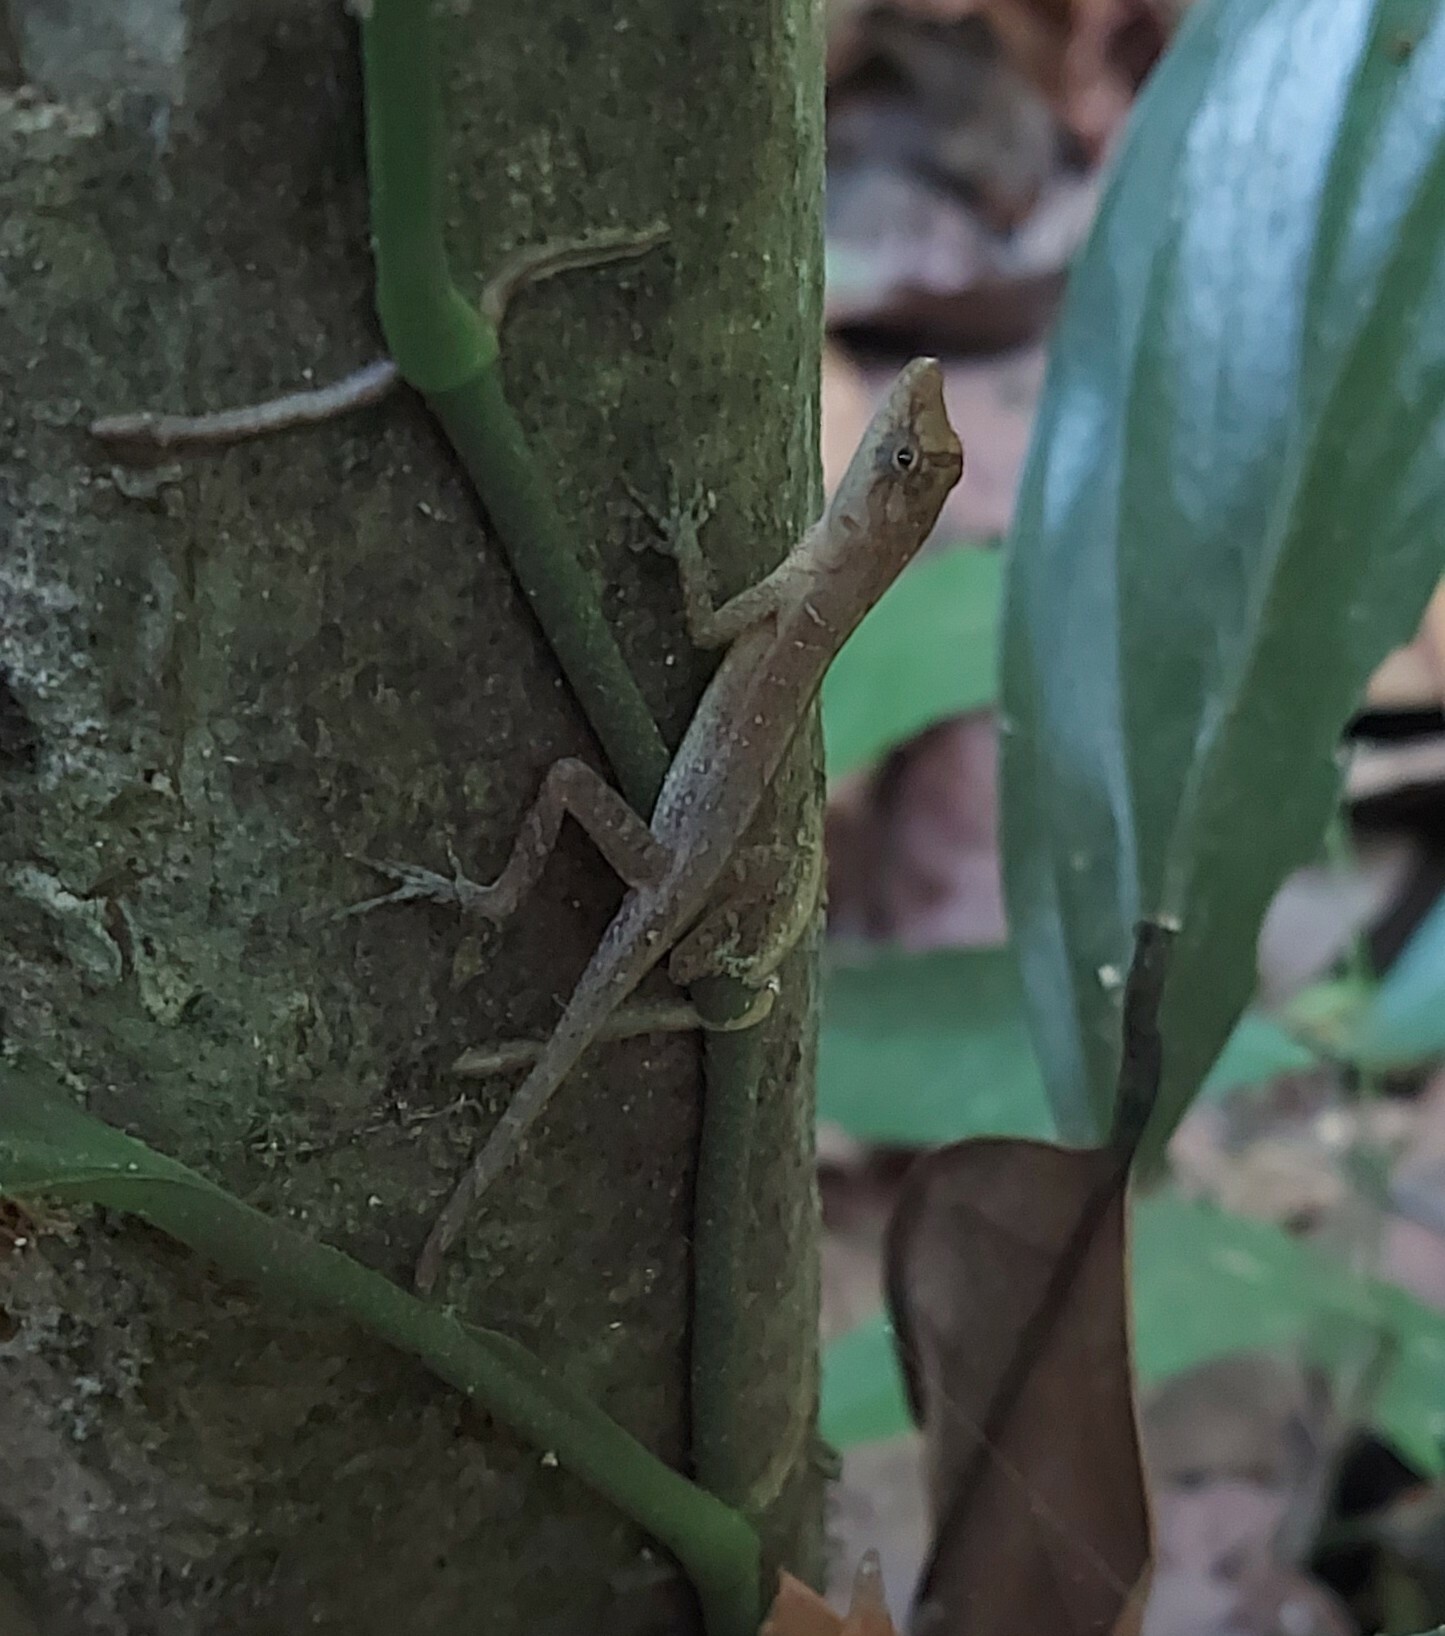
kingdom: Animalia
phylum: Chordata
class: Squamata
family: Dactyloidae
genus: Anolis
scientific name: Anolis limifrons
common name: Border anole
